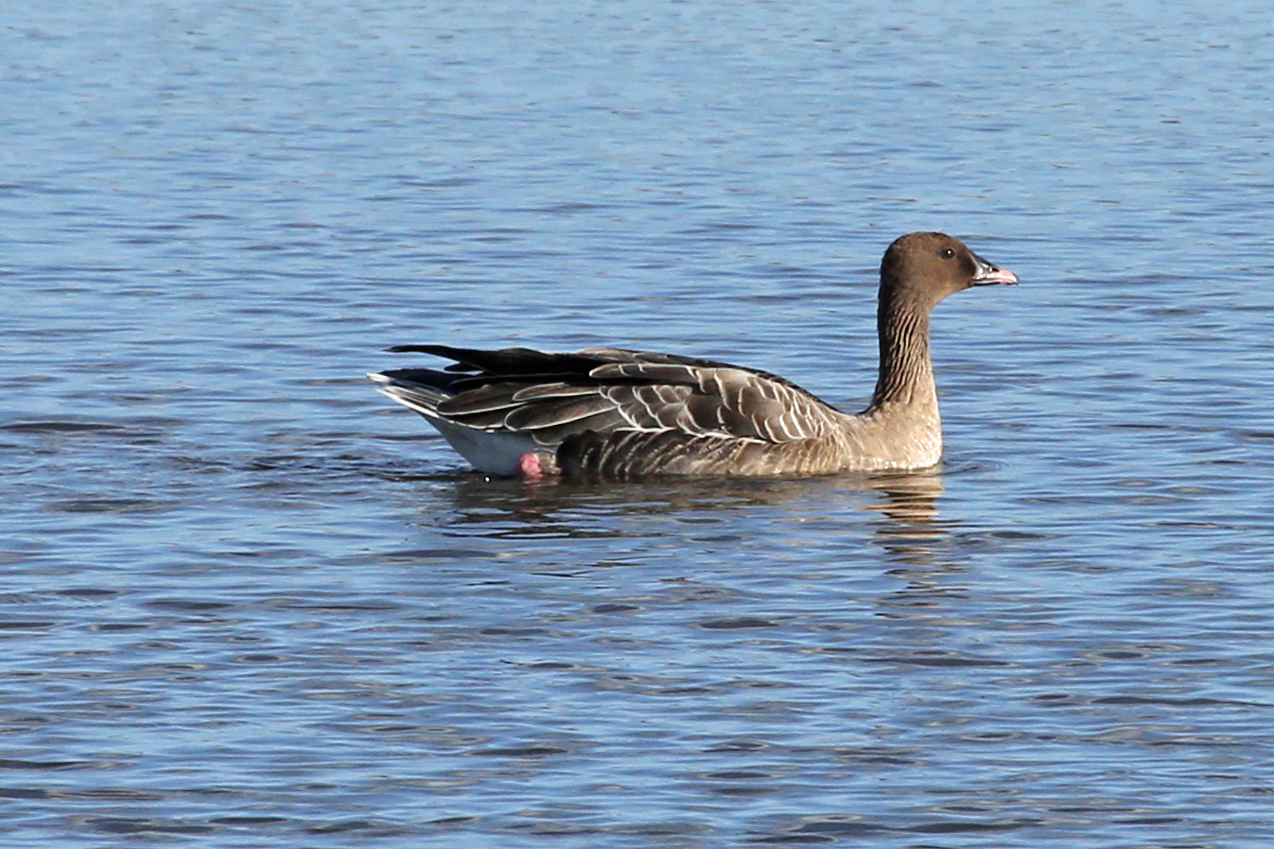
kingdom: Animalia
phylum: Chordata
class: Aves
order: Anseriformes
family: Anatidae
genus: Anser
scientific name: Anser brachyrhynchus
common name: Pink-footed goose
